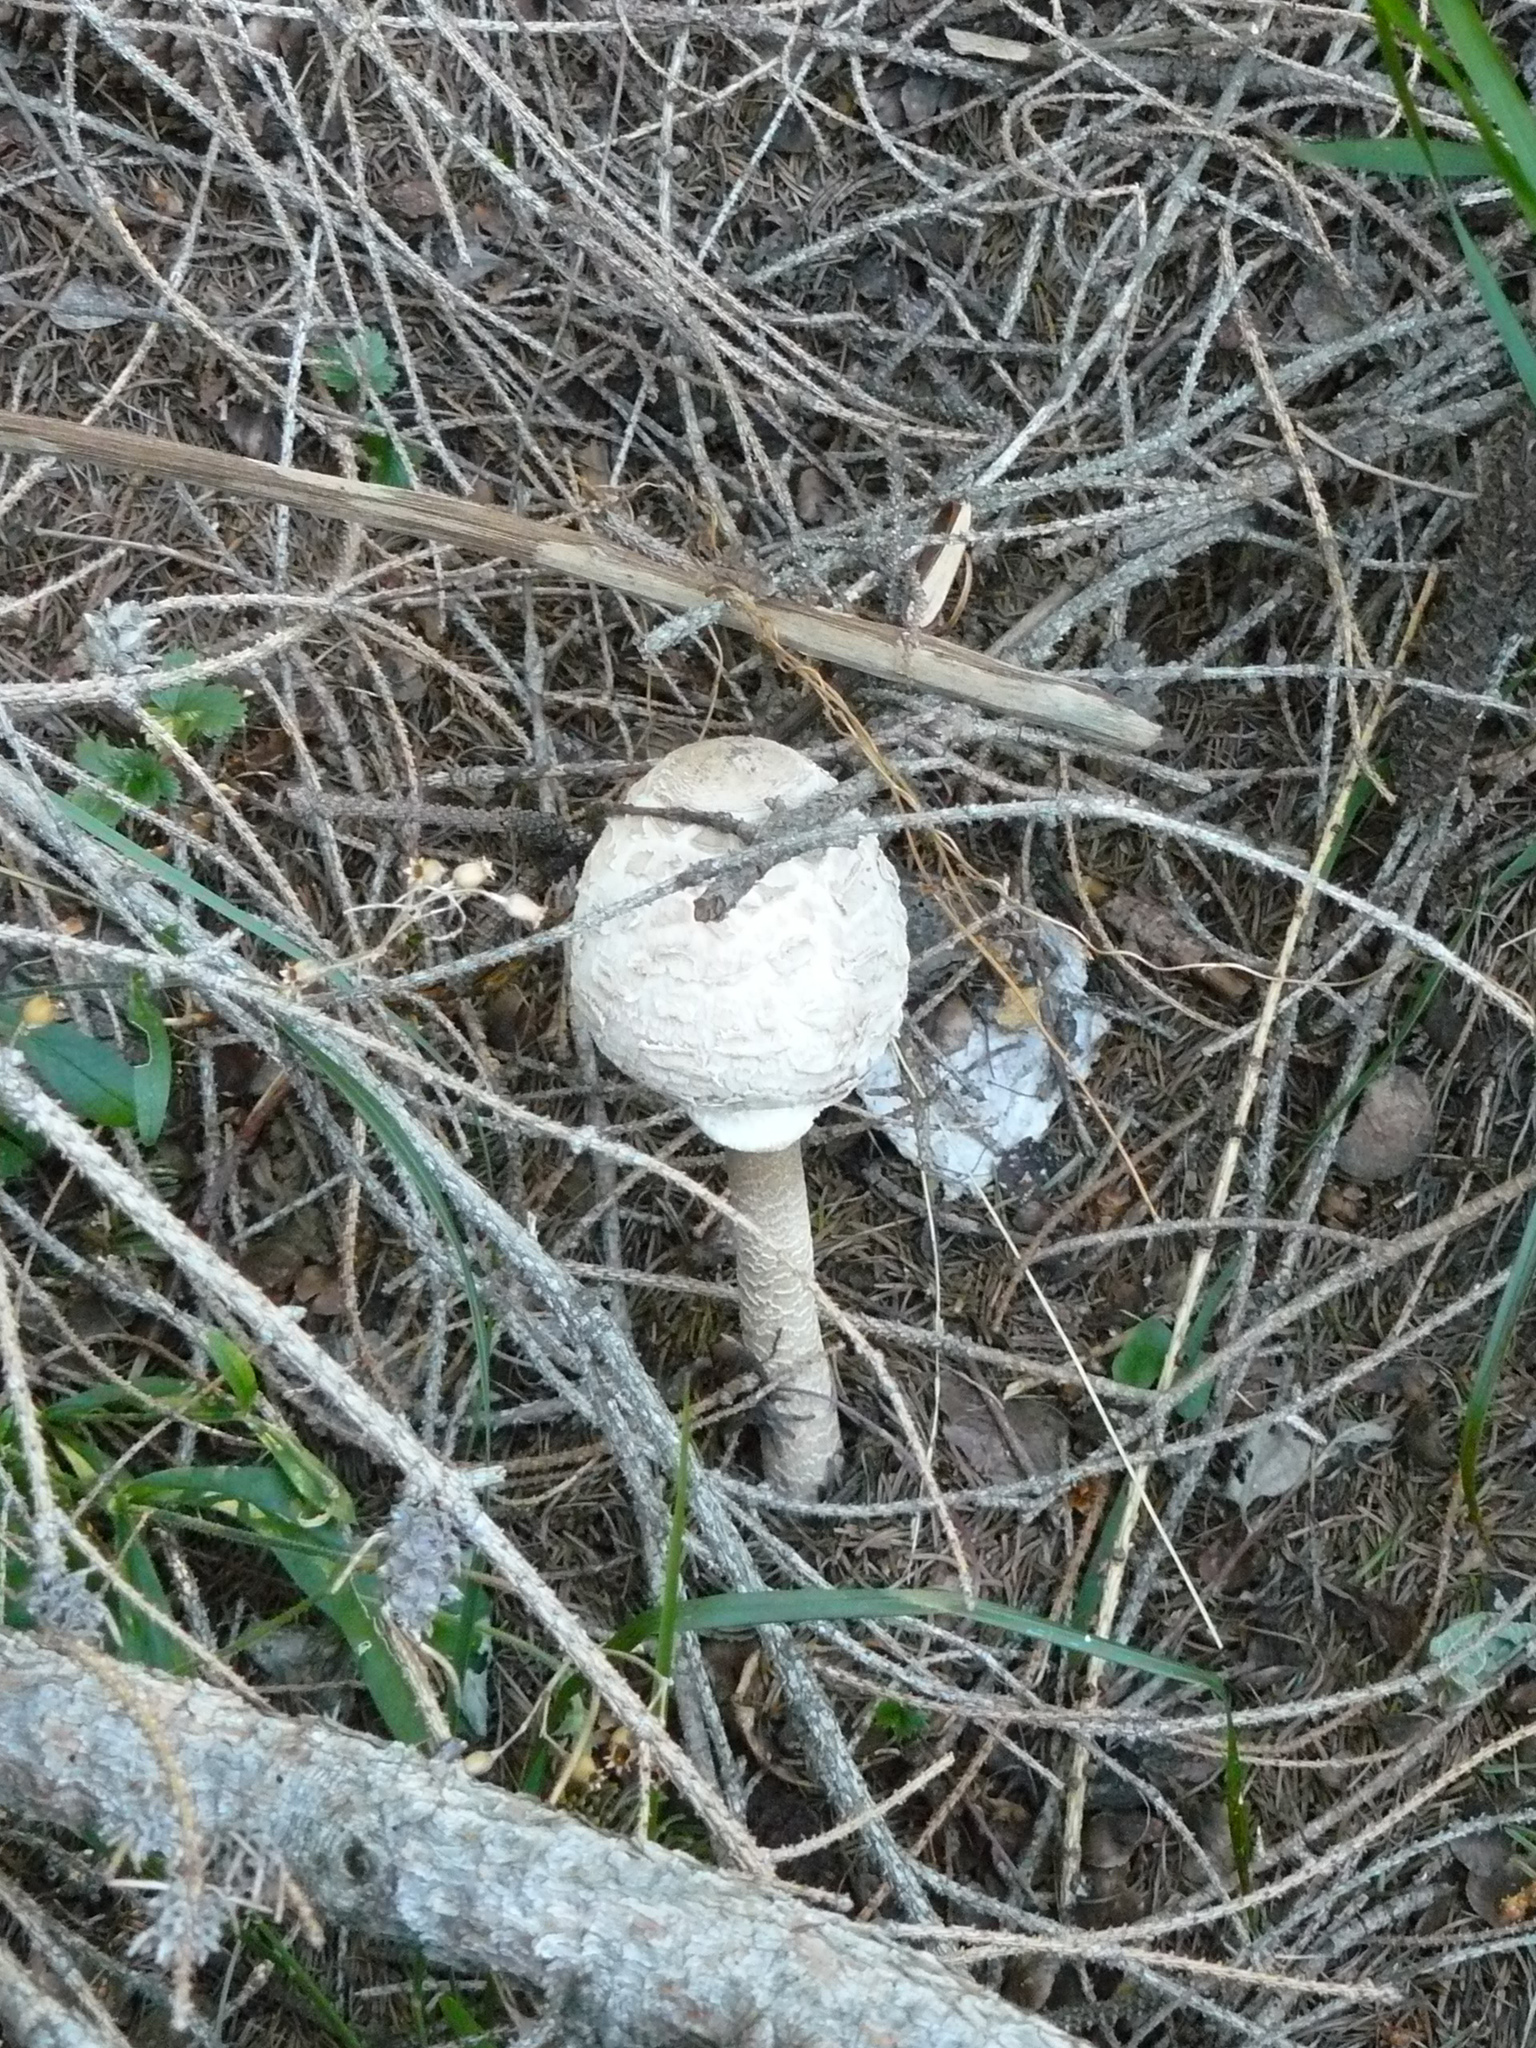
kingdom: Fungi
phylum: Basidiomycota
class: Agaricomycetes
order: Agaricales
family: Agaricaceae
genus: Macrolepiota
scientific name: Macrolepiota procera
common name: Parasol
